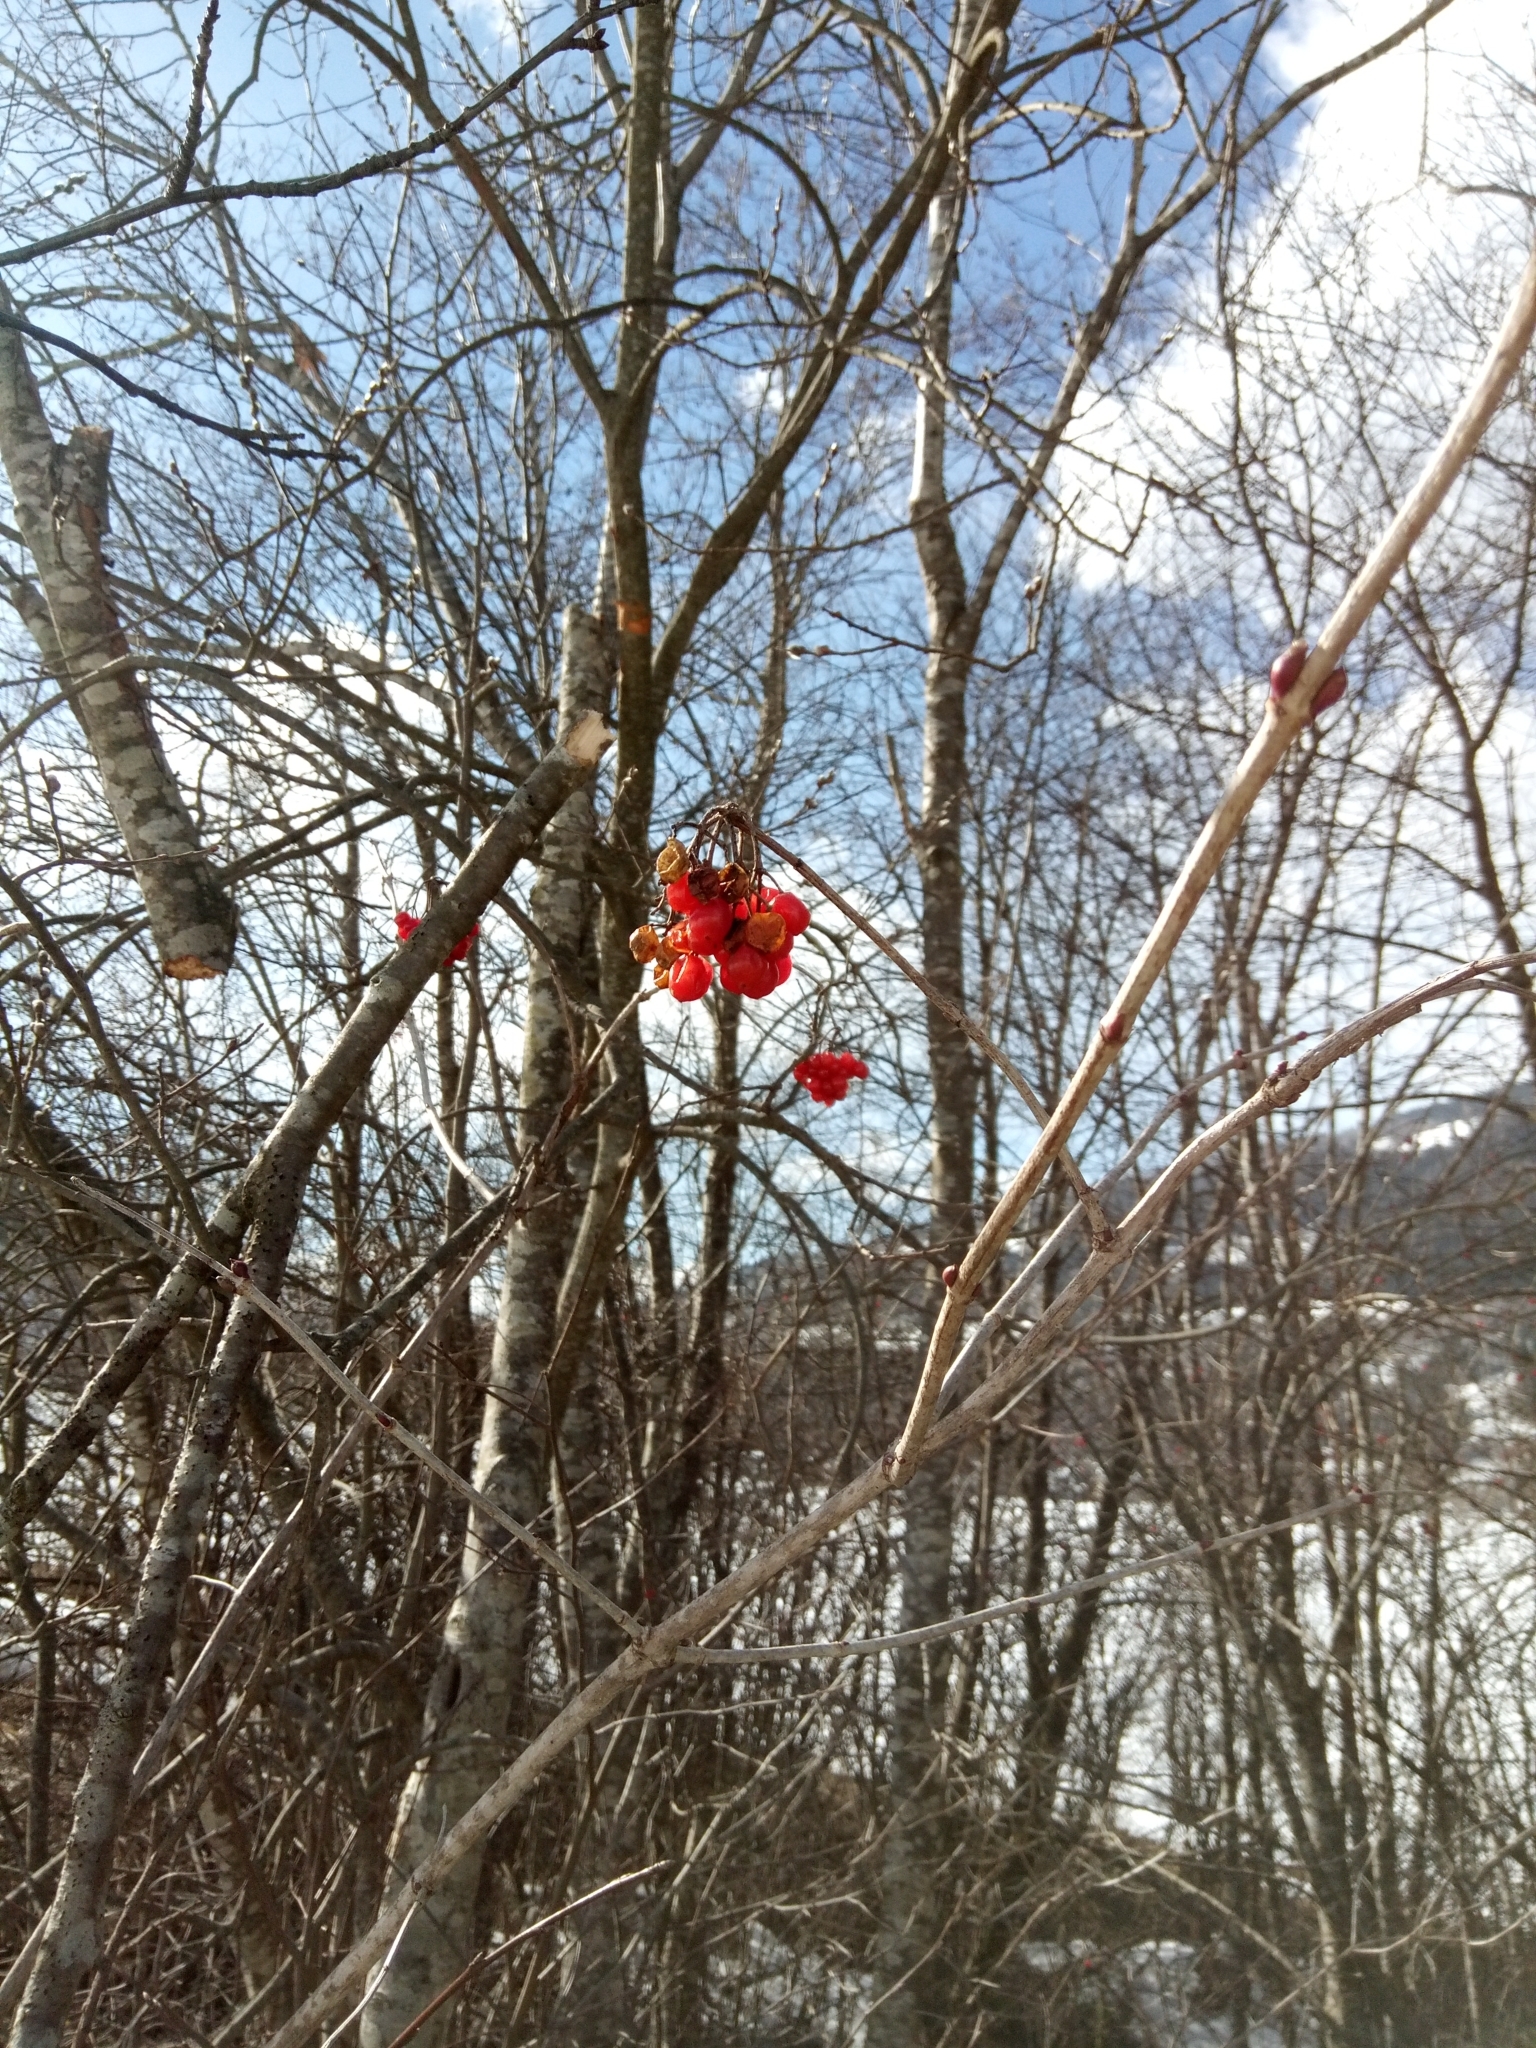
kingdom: Plantae
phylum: Tracheophyta
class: Magnoliopsida
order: Dipsacales
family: Viburnaceae
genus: Viburnum
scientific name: Viburnum opulus
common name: Guelder-rose
